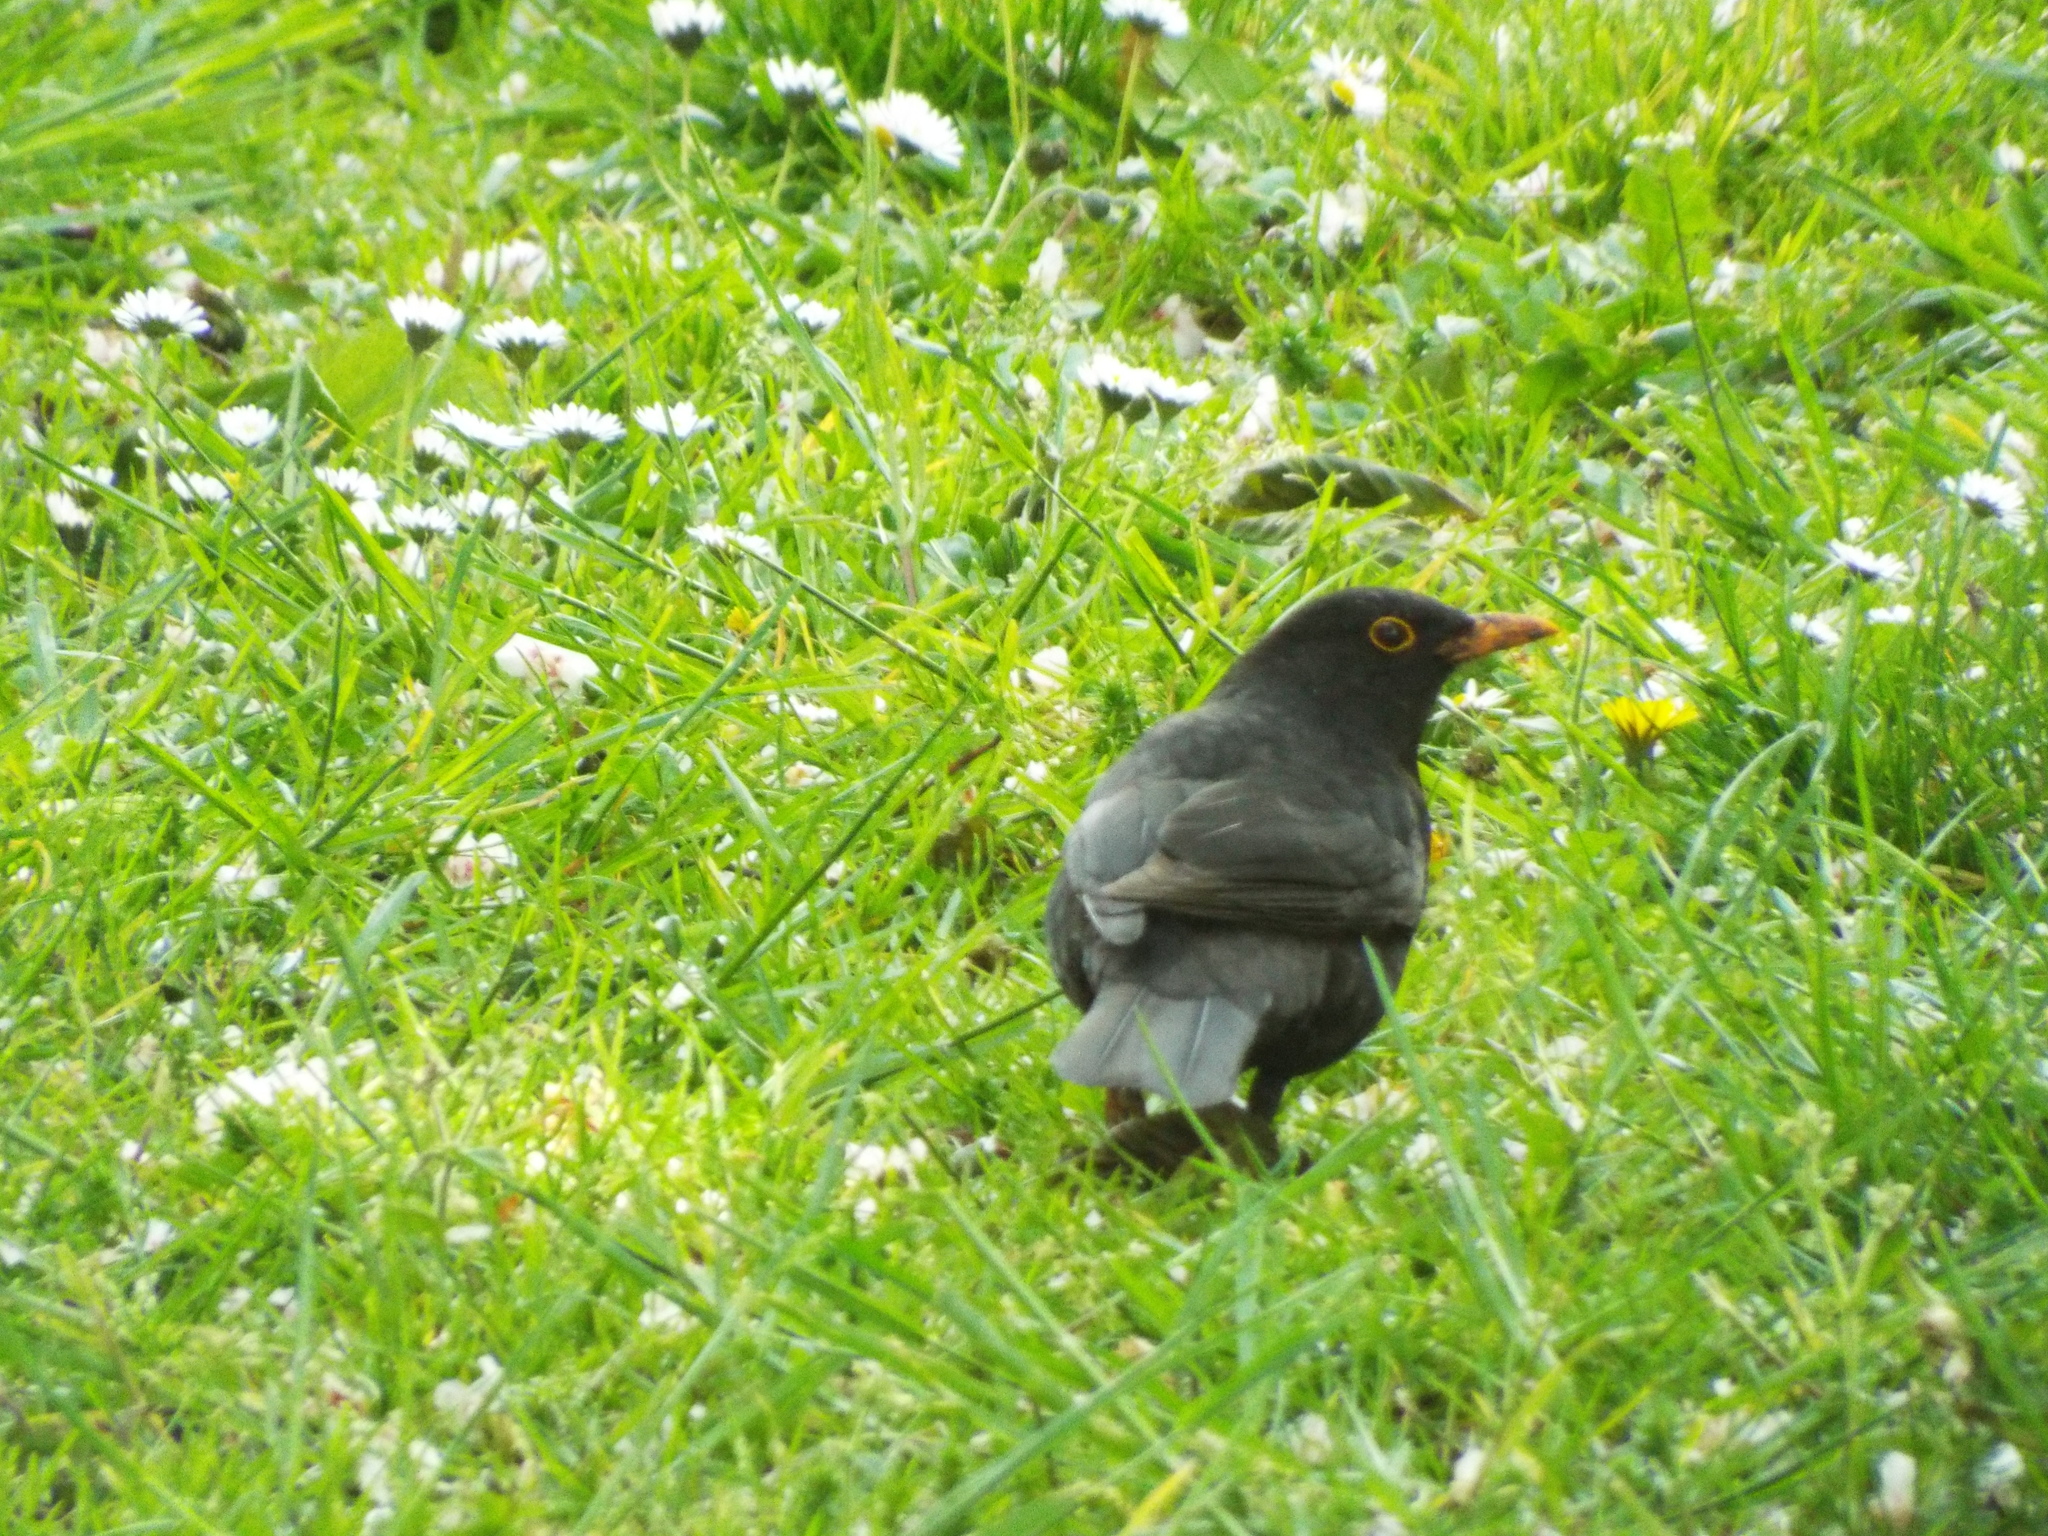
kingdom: Animalia
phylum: Chordata
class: Aves
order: Passeriformes
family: Turdidae
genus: Turdus
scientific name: Turdus merula
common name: Common blackbird
